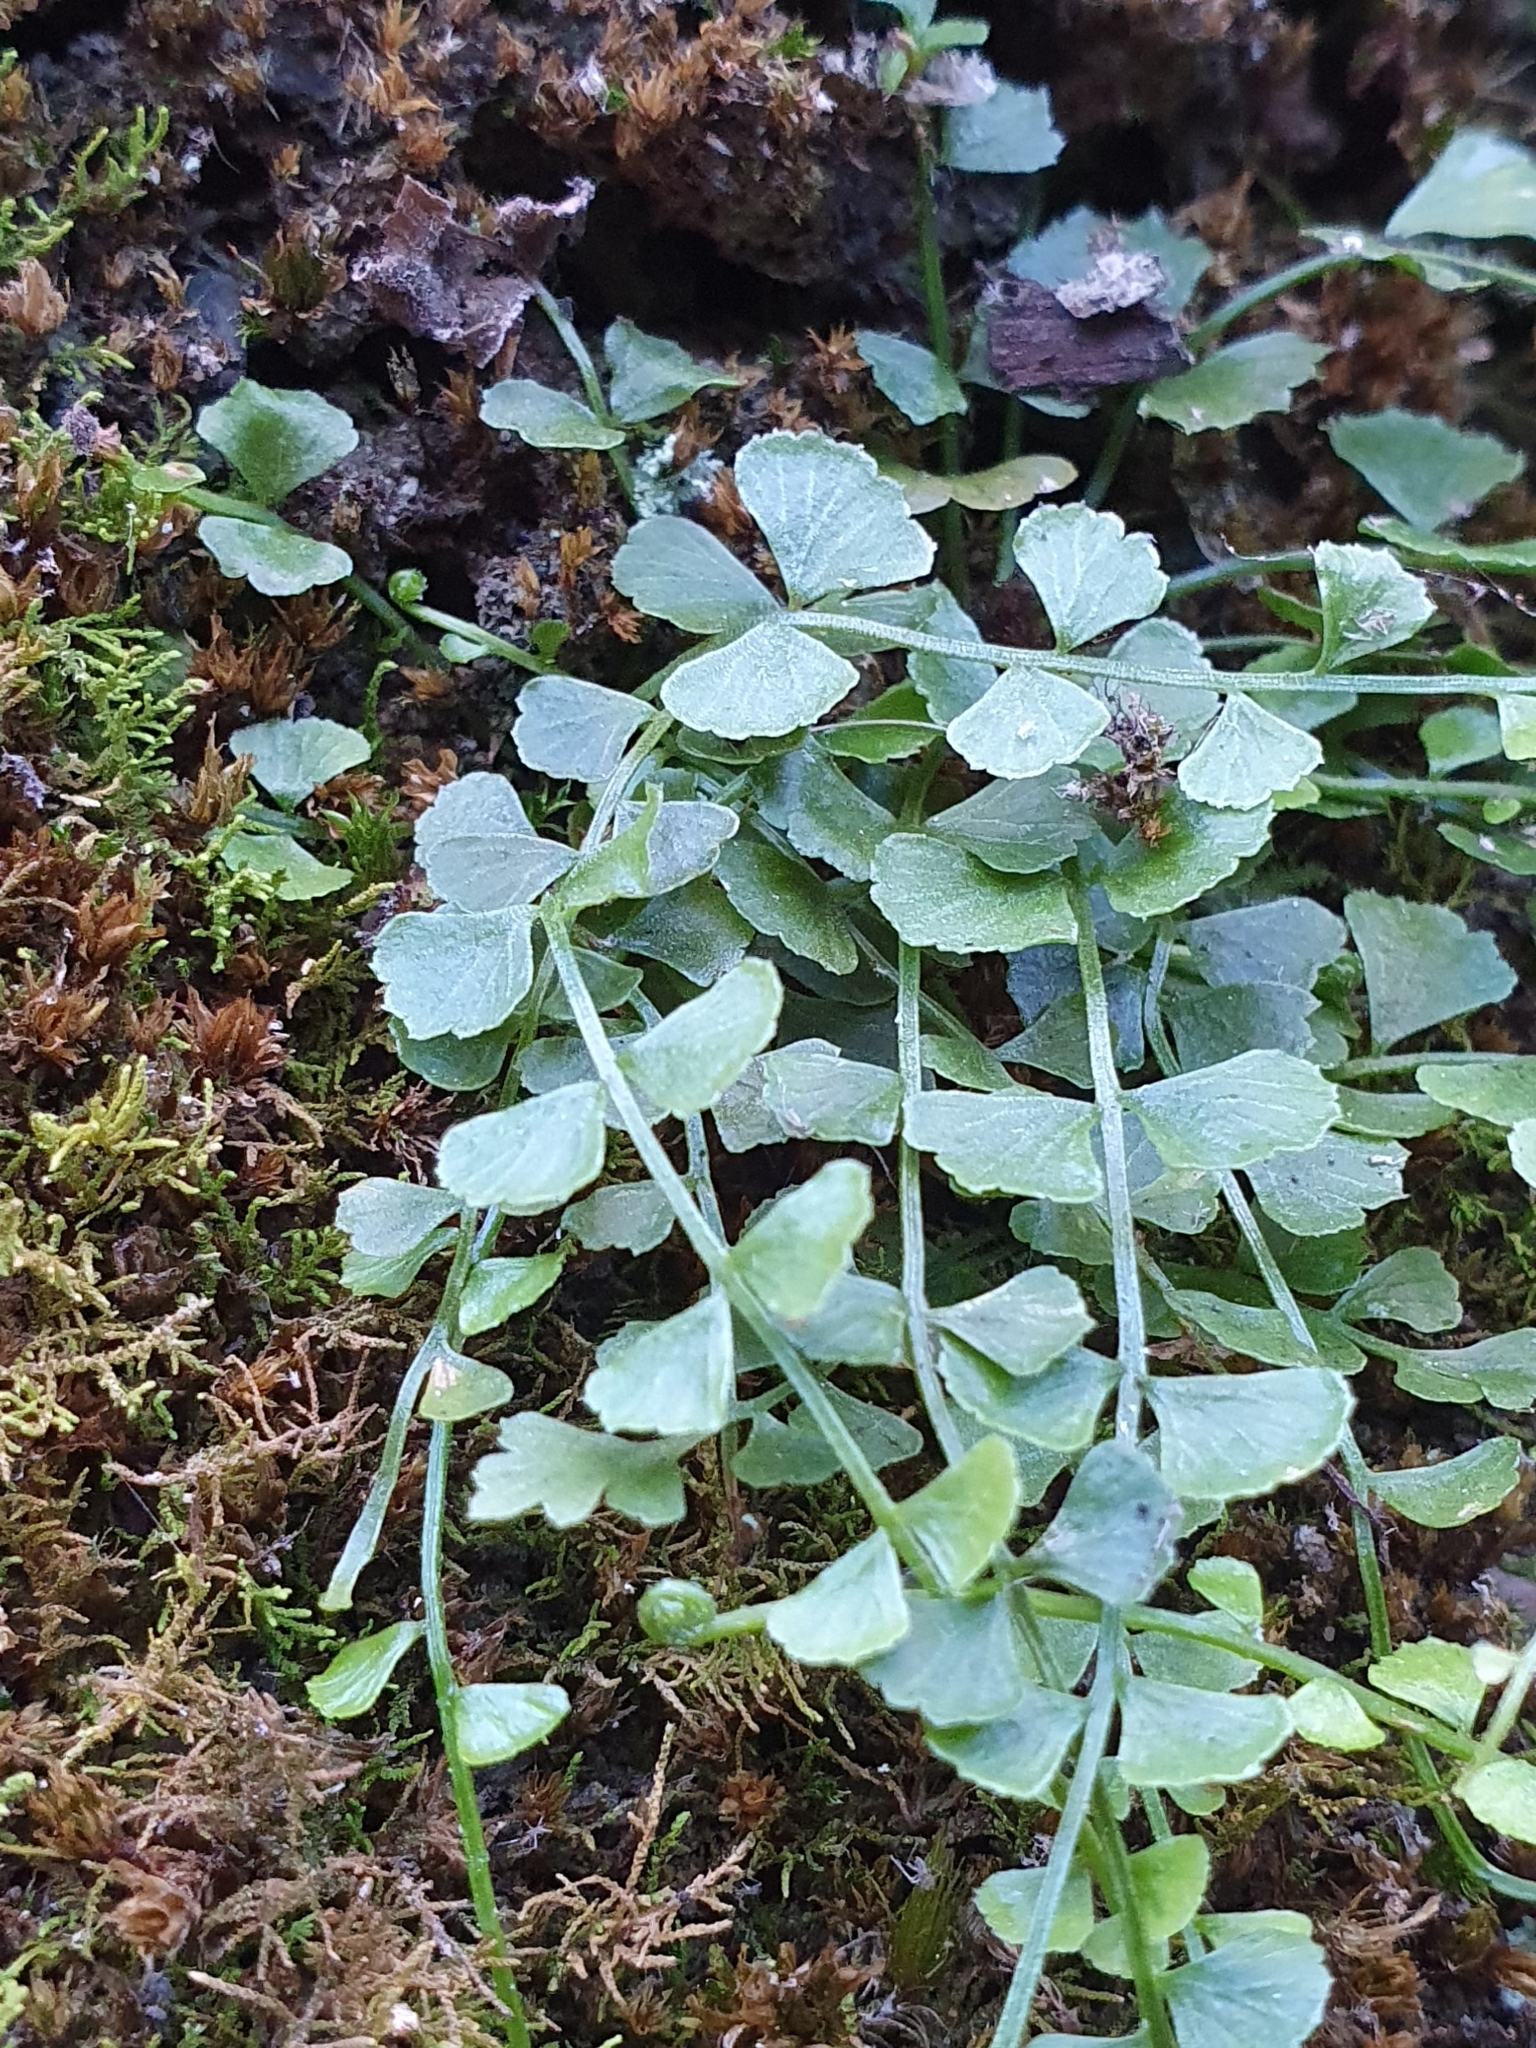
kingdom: Plantae
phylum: Tracheophyta
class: Polypodiopsida
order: Polypodiales
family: Aspleniaceae
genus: Asplenium
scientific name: Asplenium flabellifolium
